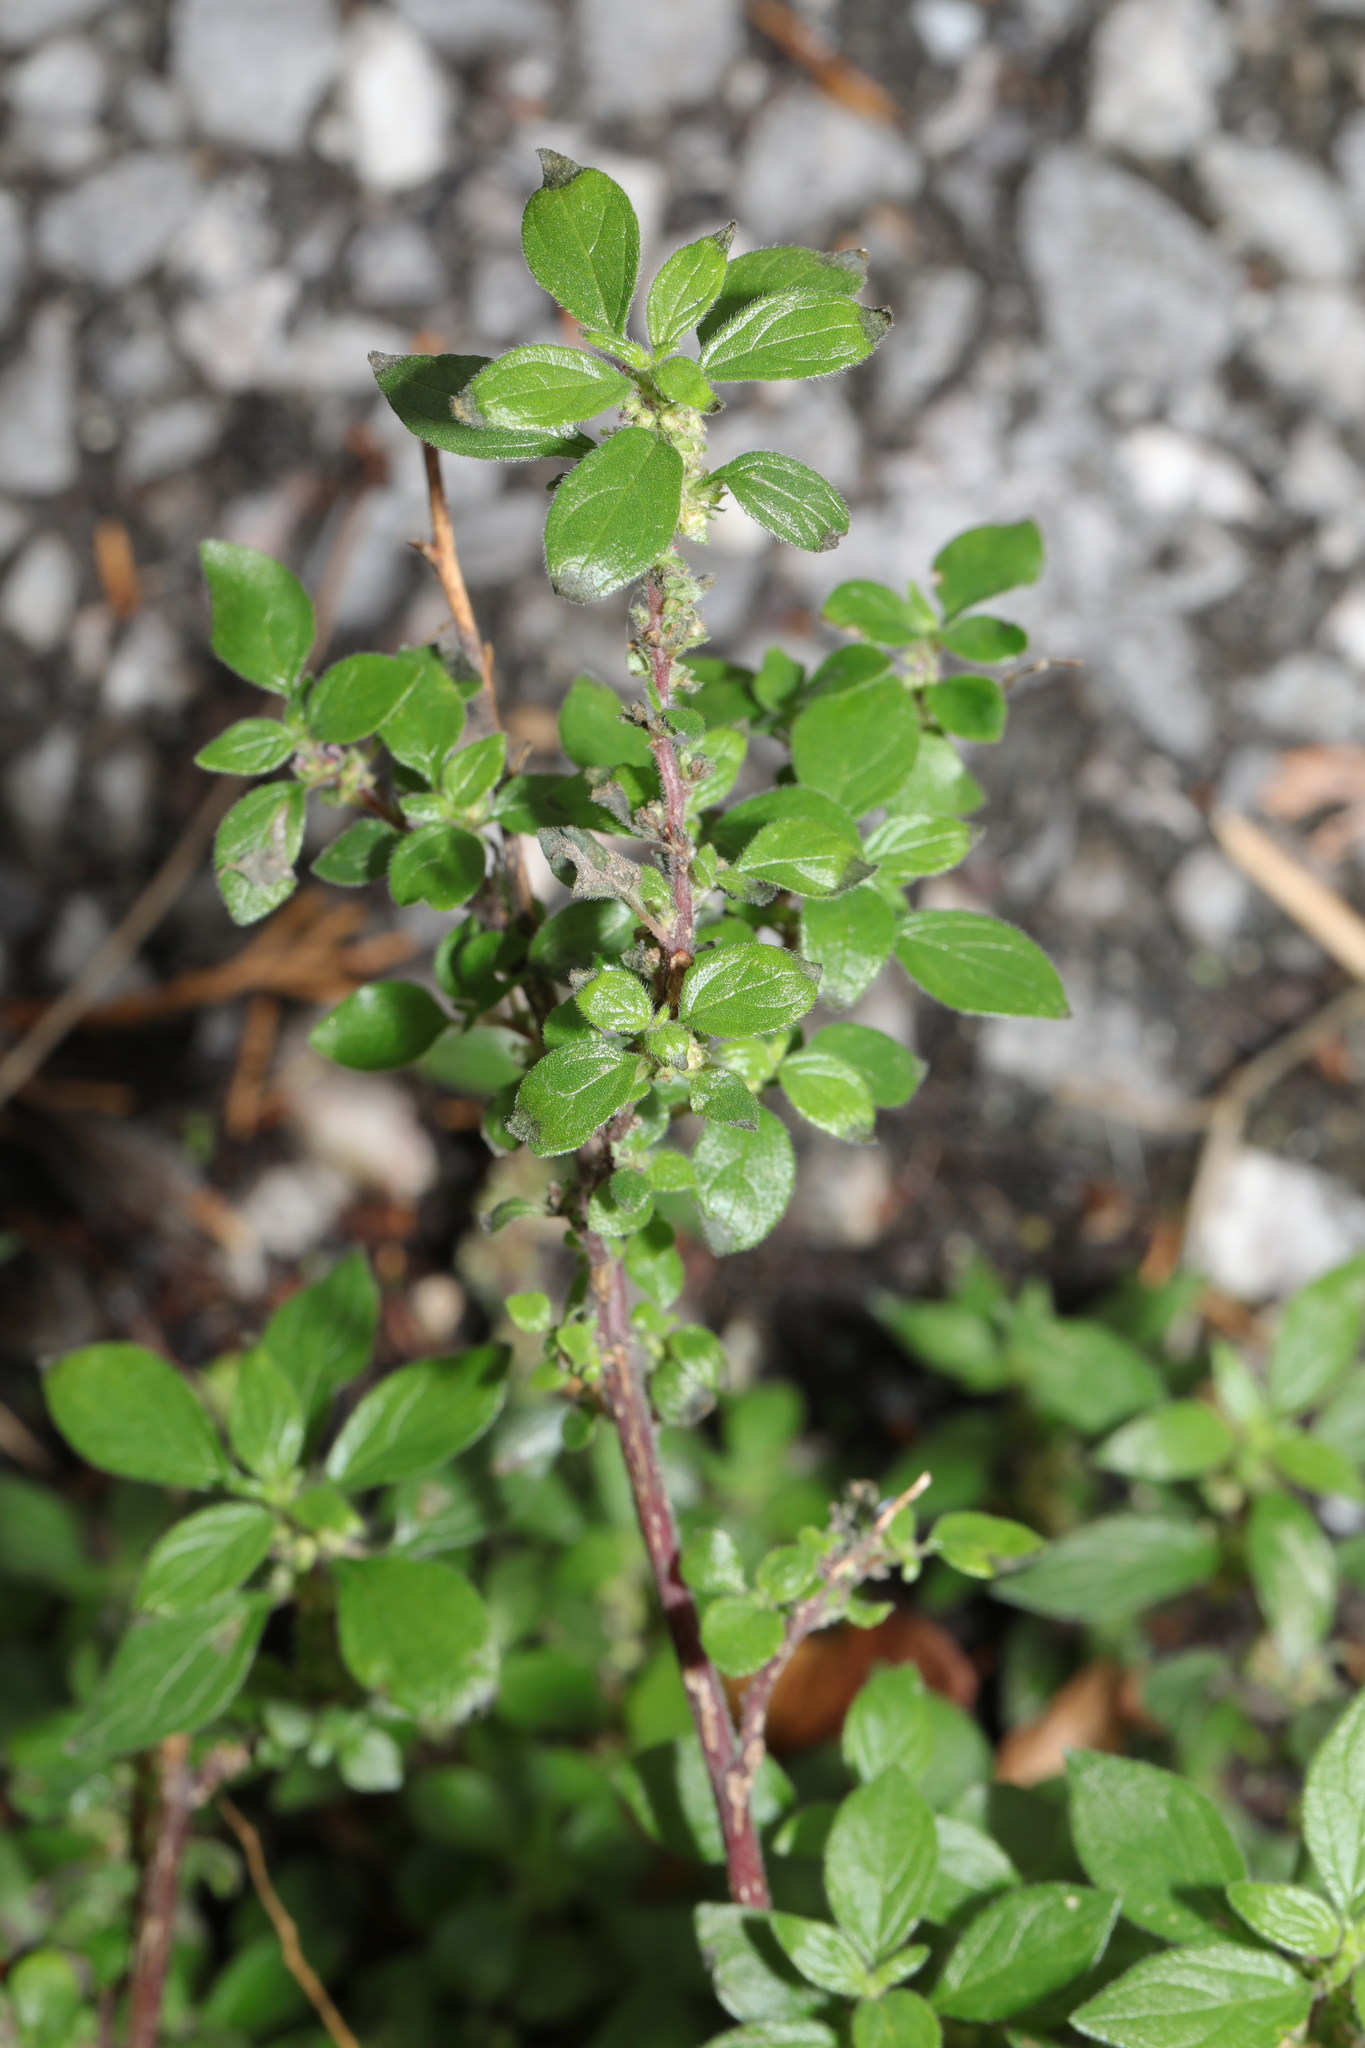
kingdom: Plantae
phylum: Tracheophyta
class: Magnoliopsida
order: Rosales
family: Urticaceae
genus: Parietaria
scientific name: Parietaria judaica
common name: Pellitory-of-the-wall
